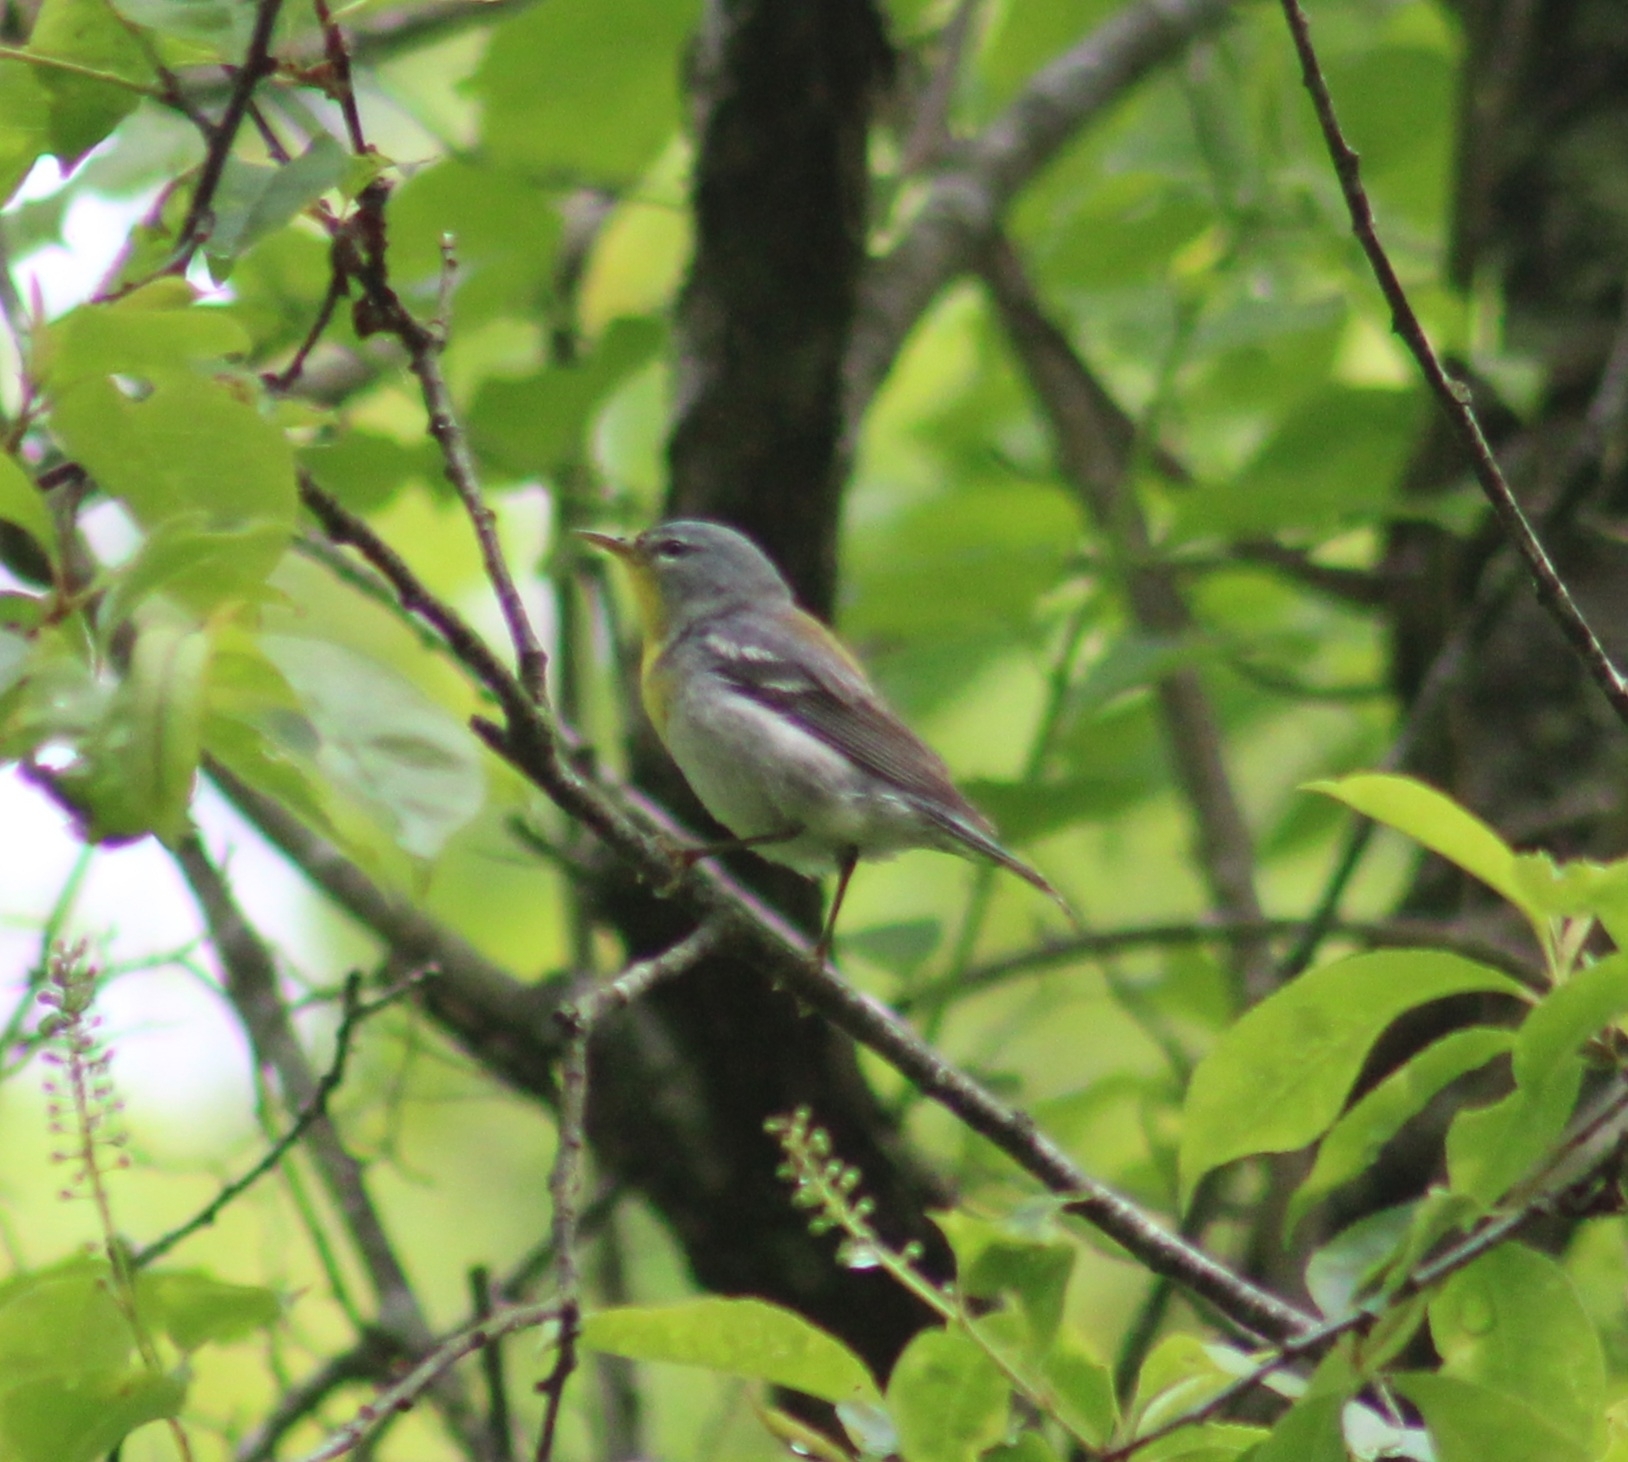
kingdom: Animalia
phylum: Chordata
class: Aves
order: Passeriformes
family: Parulidae
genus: Setophaga
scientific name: Setophaga americana
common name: Northern parula
